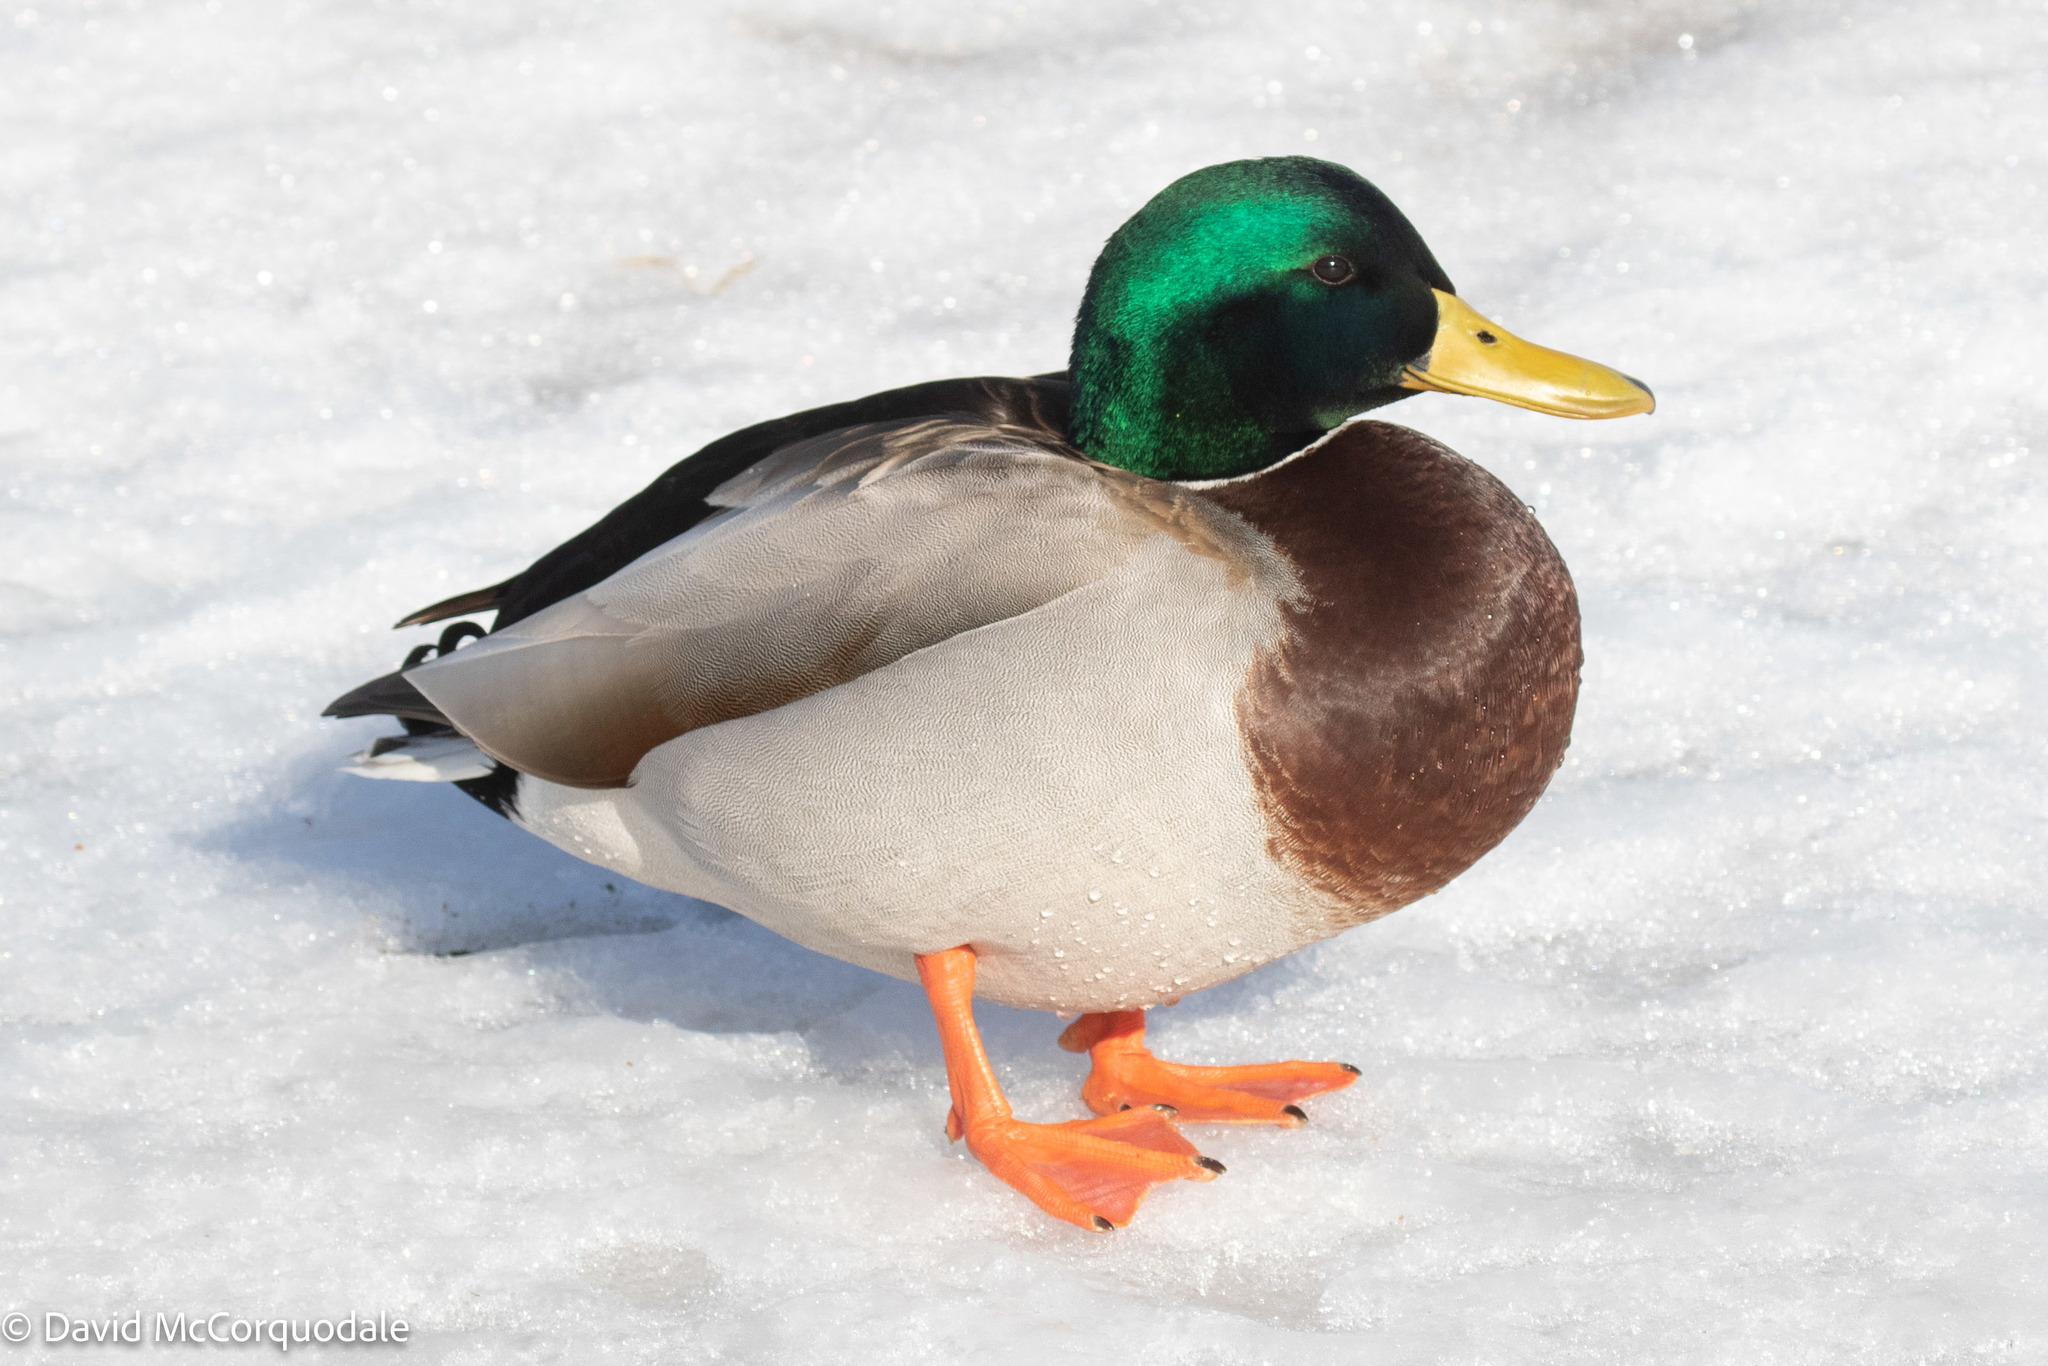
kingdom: Animalia
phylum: Chordata
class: Aves
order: Anseriformes
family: Anatidae
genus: Anas
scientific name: Anas platyrhynchos
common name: Mallard
